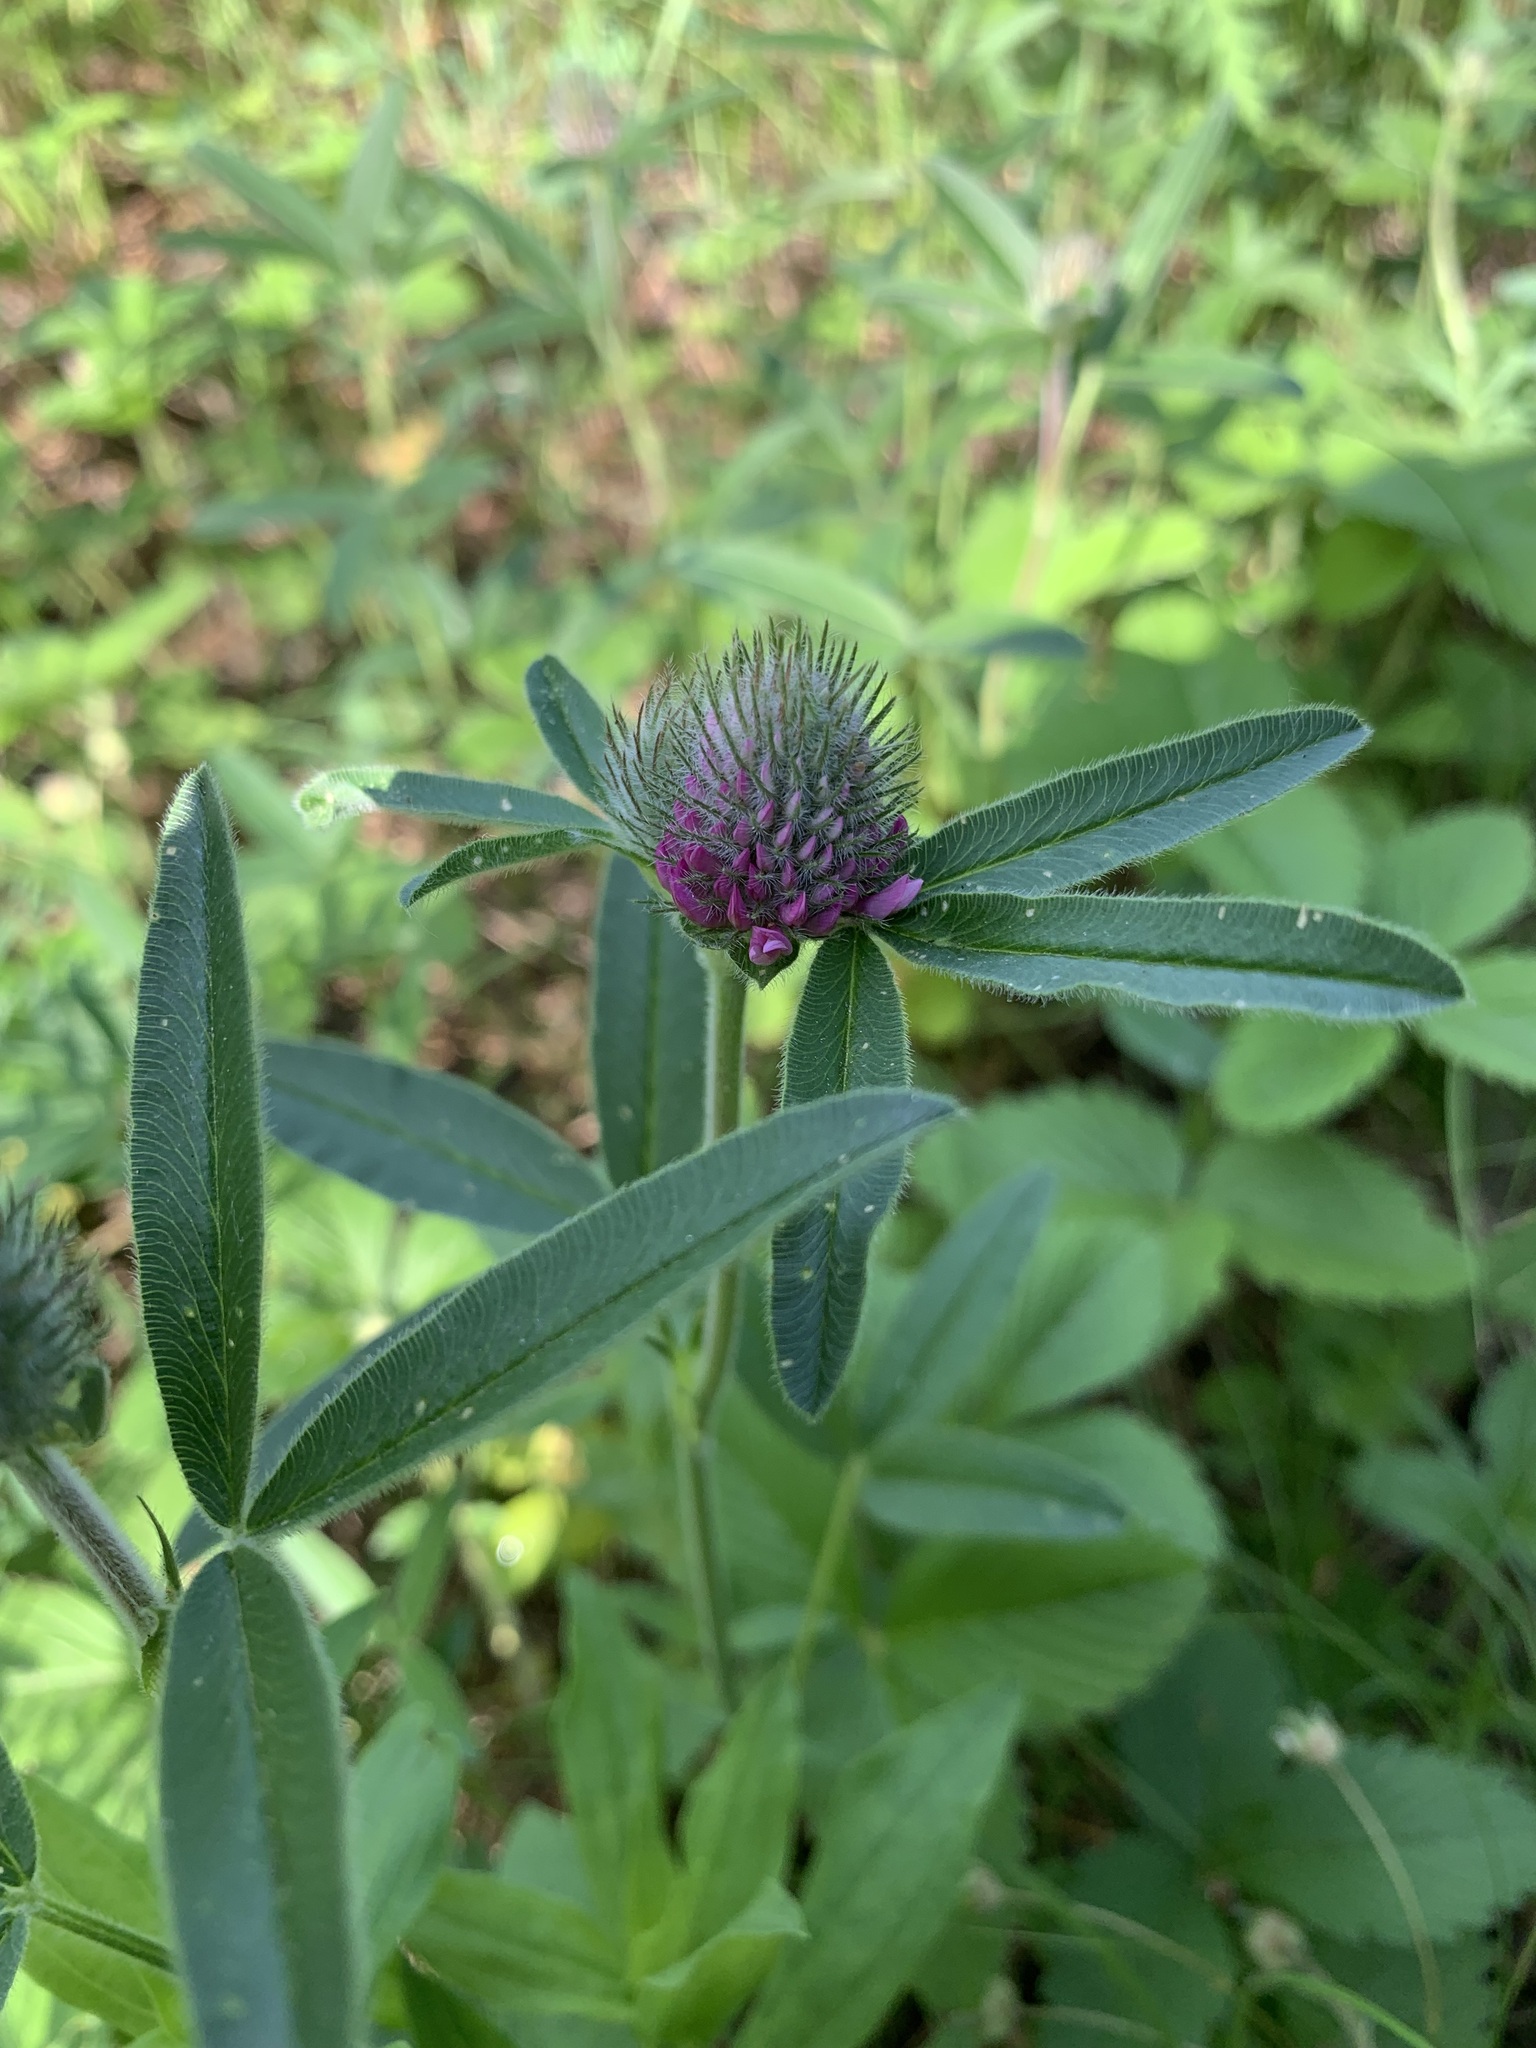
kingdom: Plantae
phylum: Tracheophyta
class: Magnoliopsida
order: Fabales
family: Fabaceae
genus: Trifolium
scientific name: Trifolium alpestre
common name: Owl-head clover
